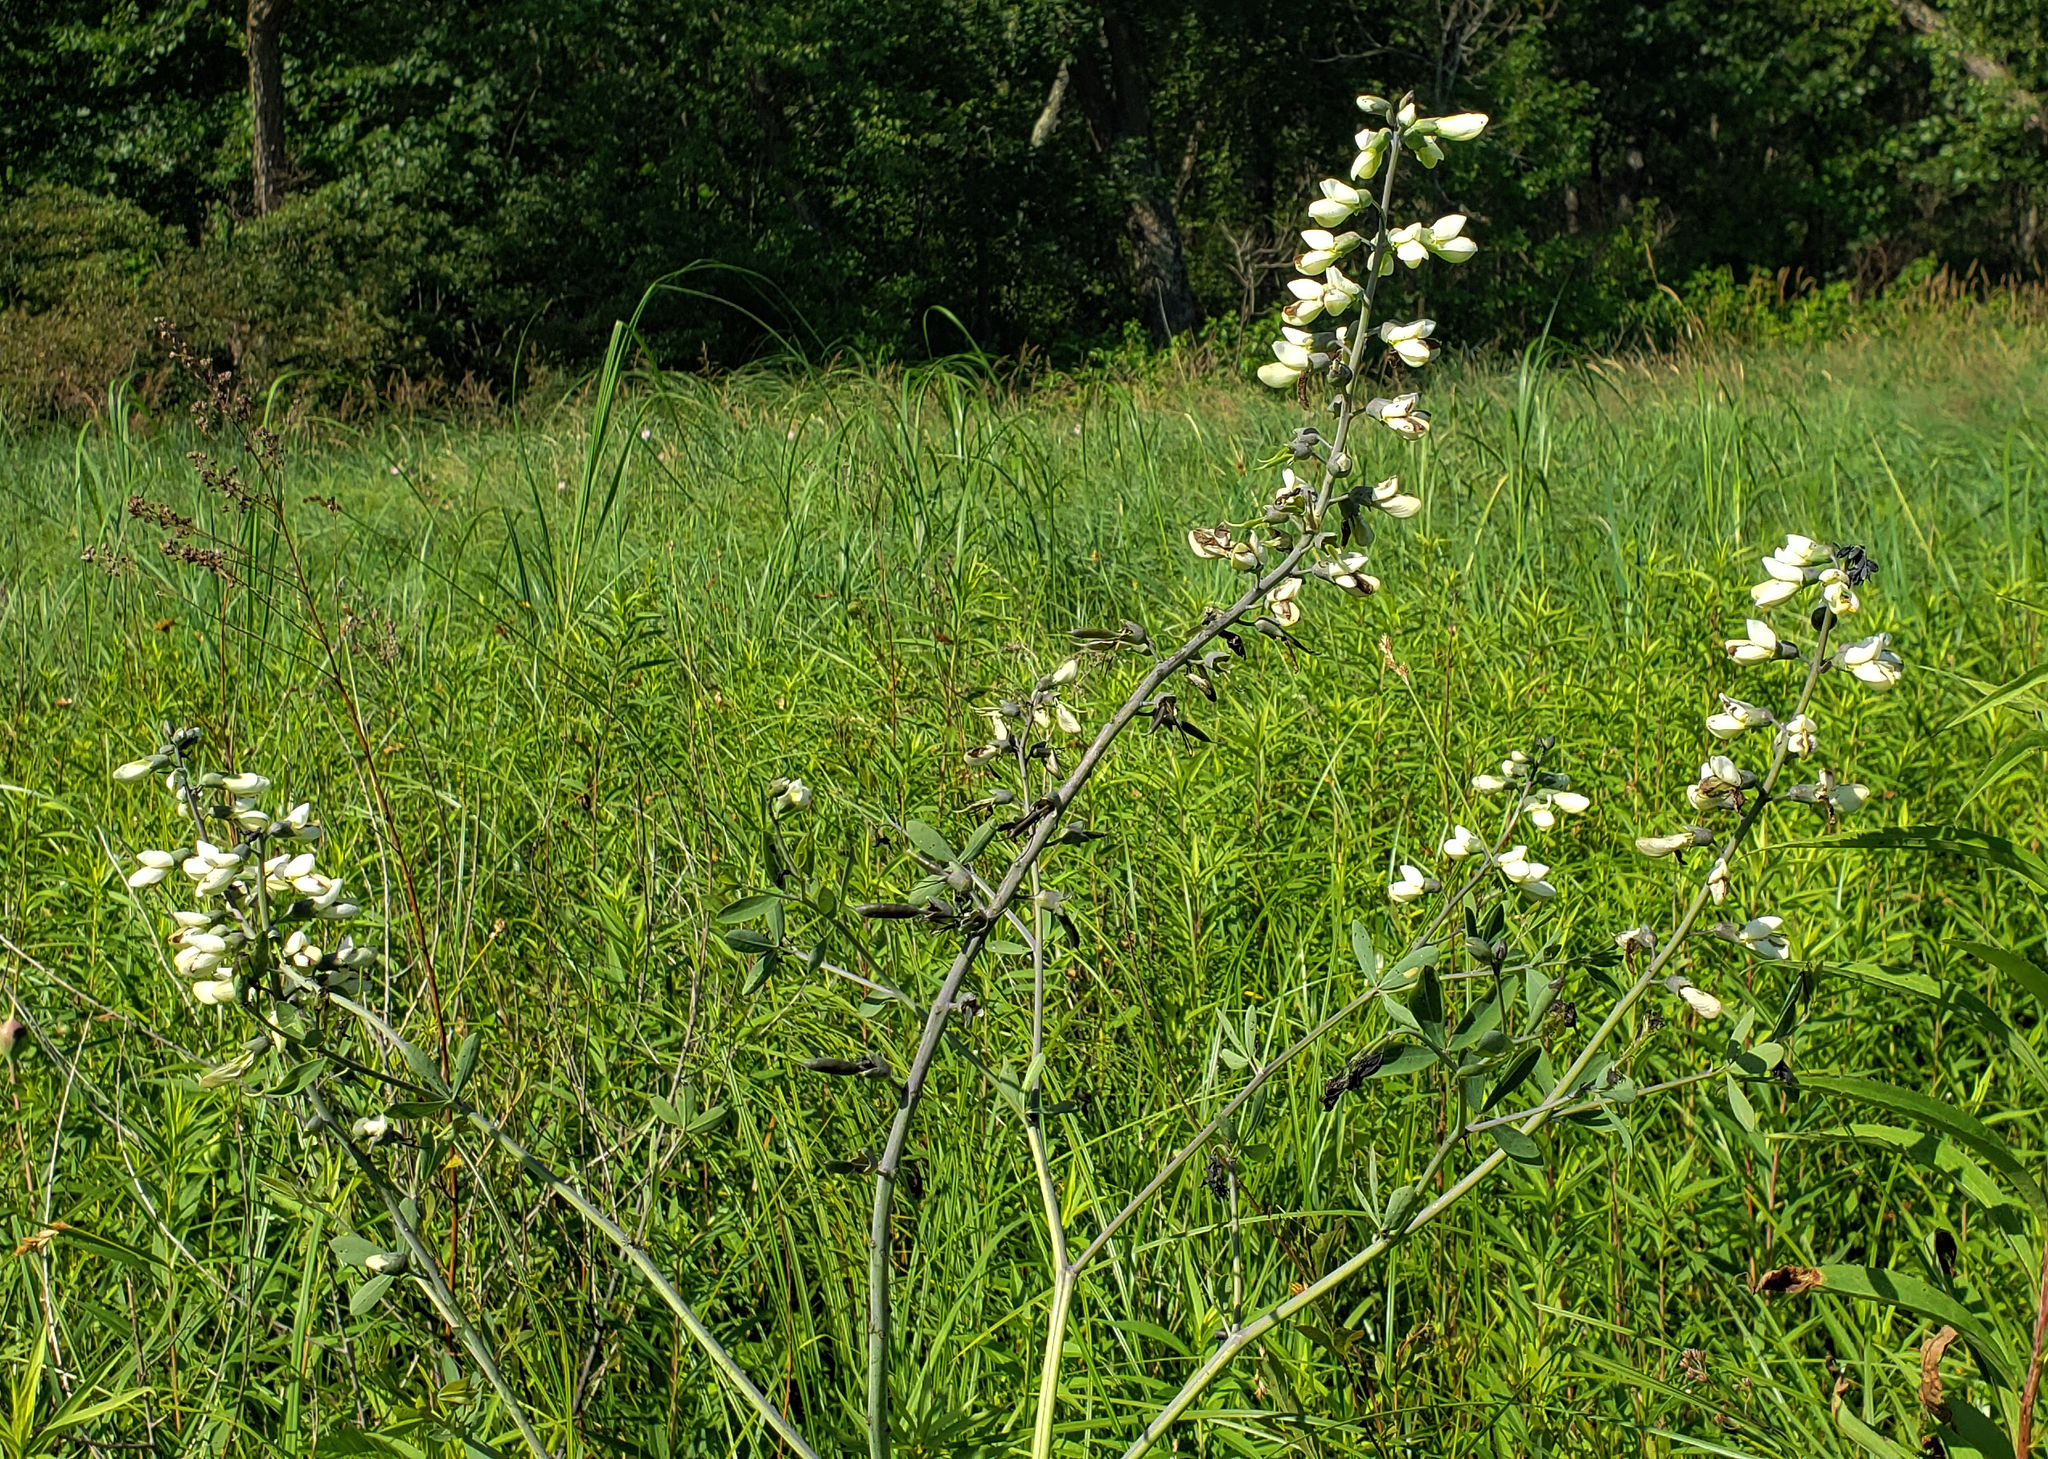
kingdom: Plantae
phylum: Tracheophyta
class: Magnoliopsida
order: Fabales
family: Fabaceae
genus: Baptisia
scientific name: Baptisia alba
